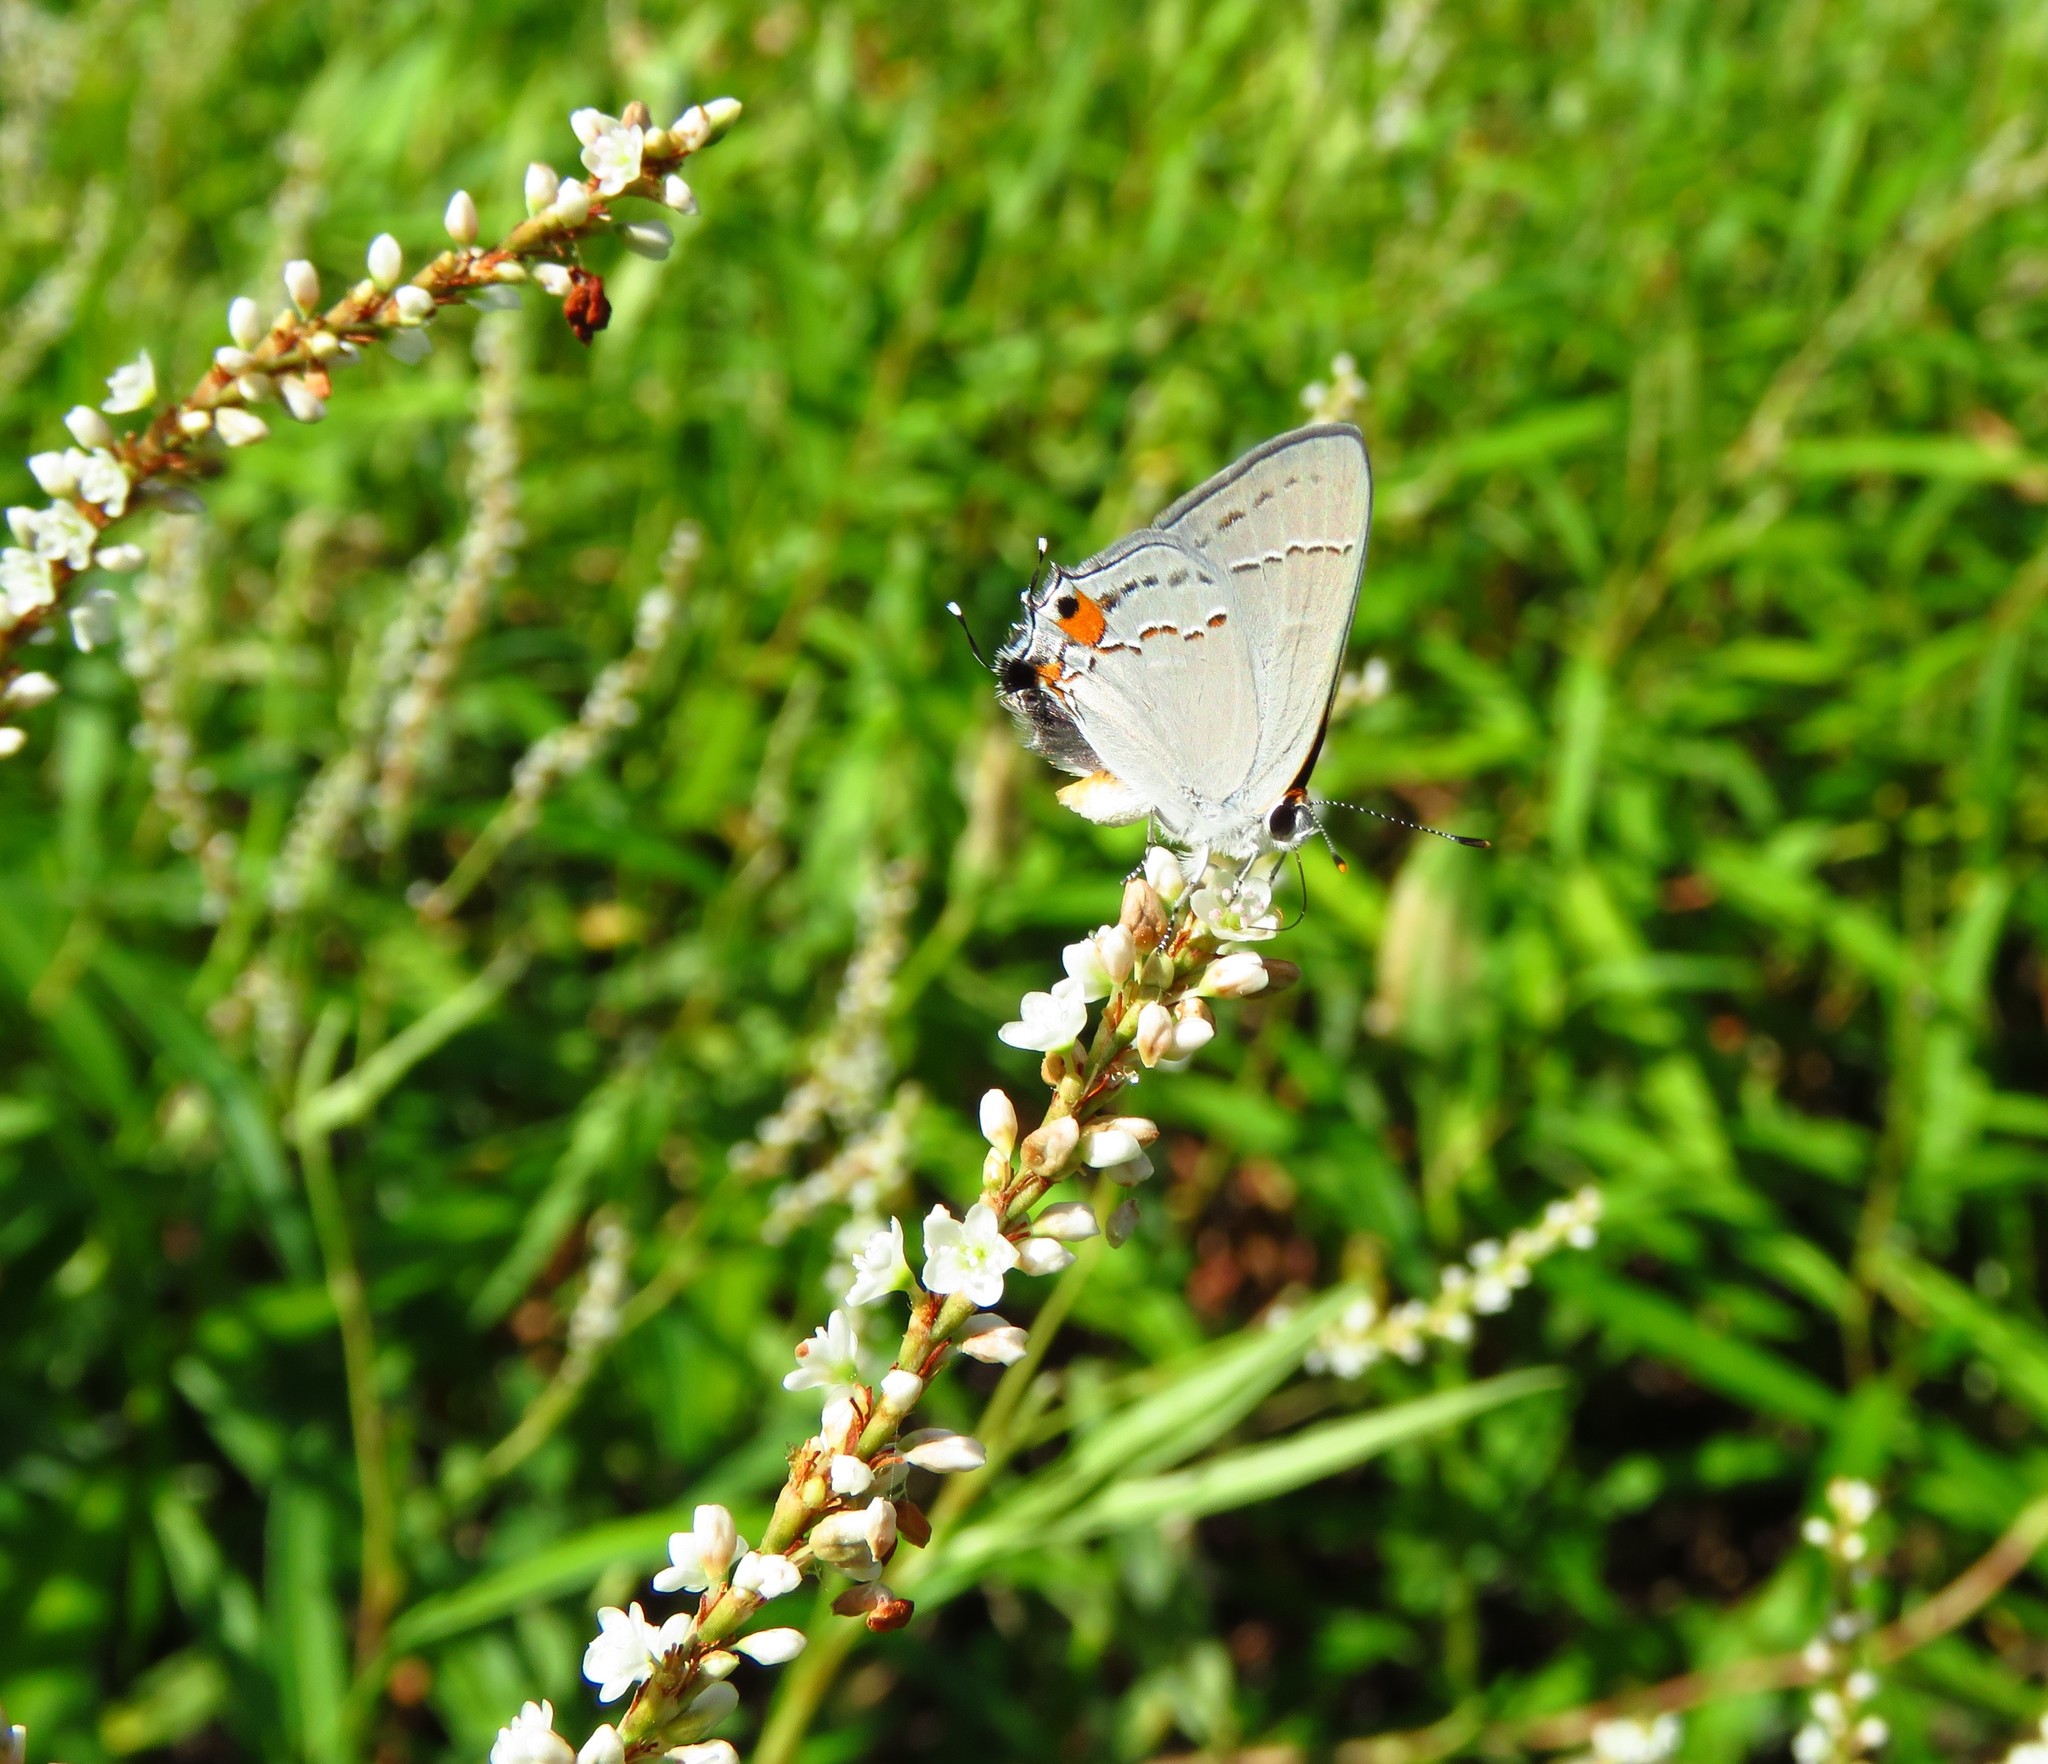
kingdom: Animalia
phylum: Arthropoda
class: Insecta
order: Lepidoptera
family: Lycaenidae
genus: Strymon
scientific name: Strymon melinus
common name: Gray hairstreak
